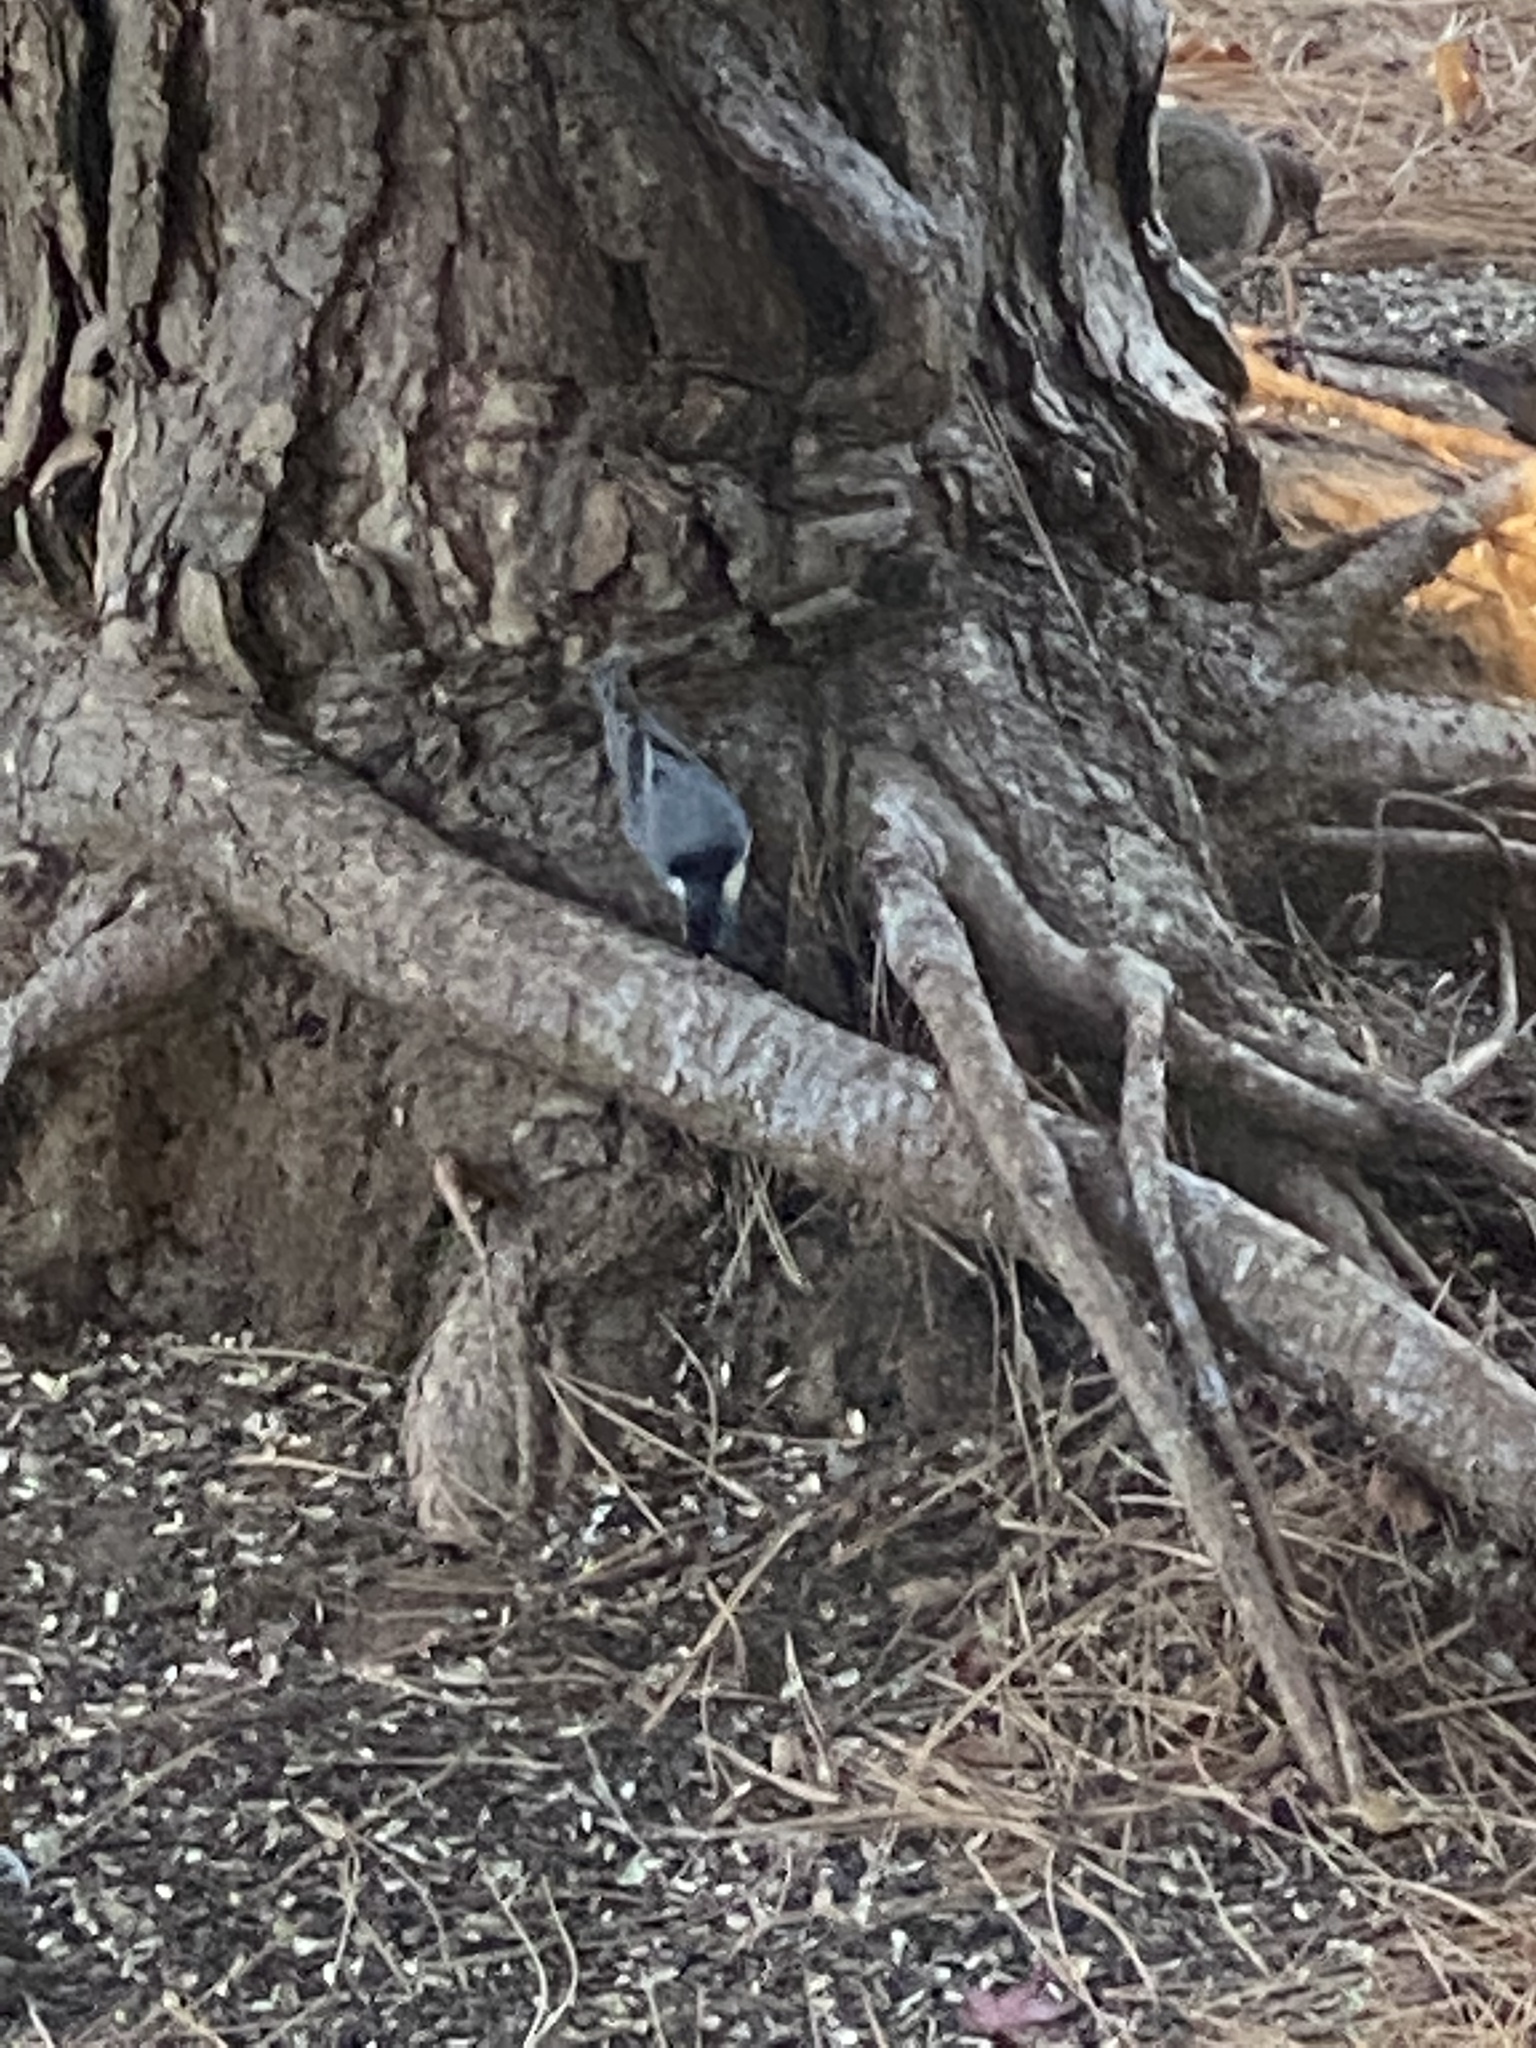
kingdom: Animalia
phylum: Chordata
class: Aves
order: Passeriformes
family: Sittidae
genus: Sitta
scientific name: Sitta carolinensis
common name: White-breasted nuthatch
